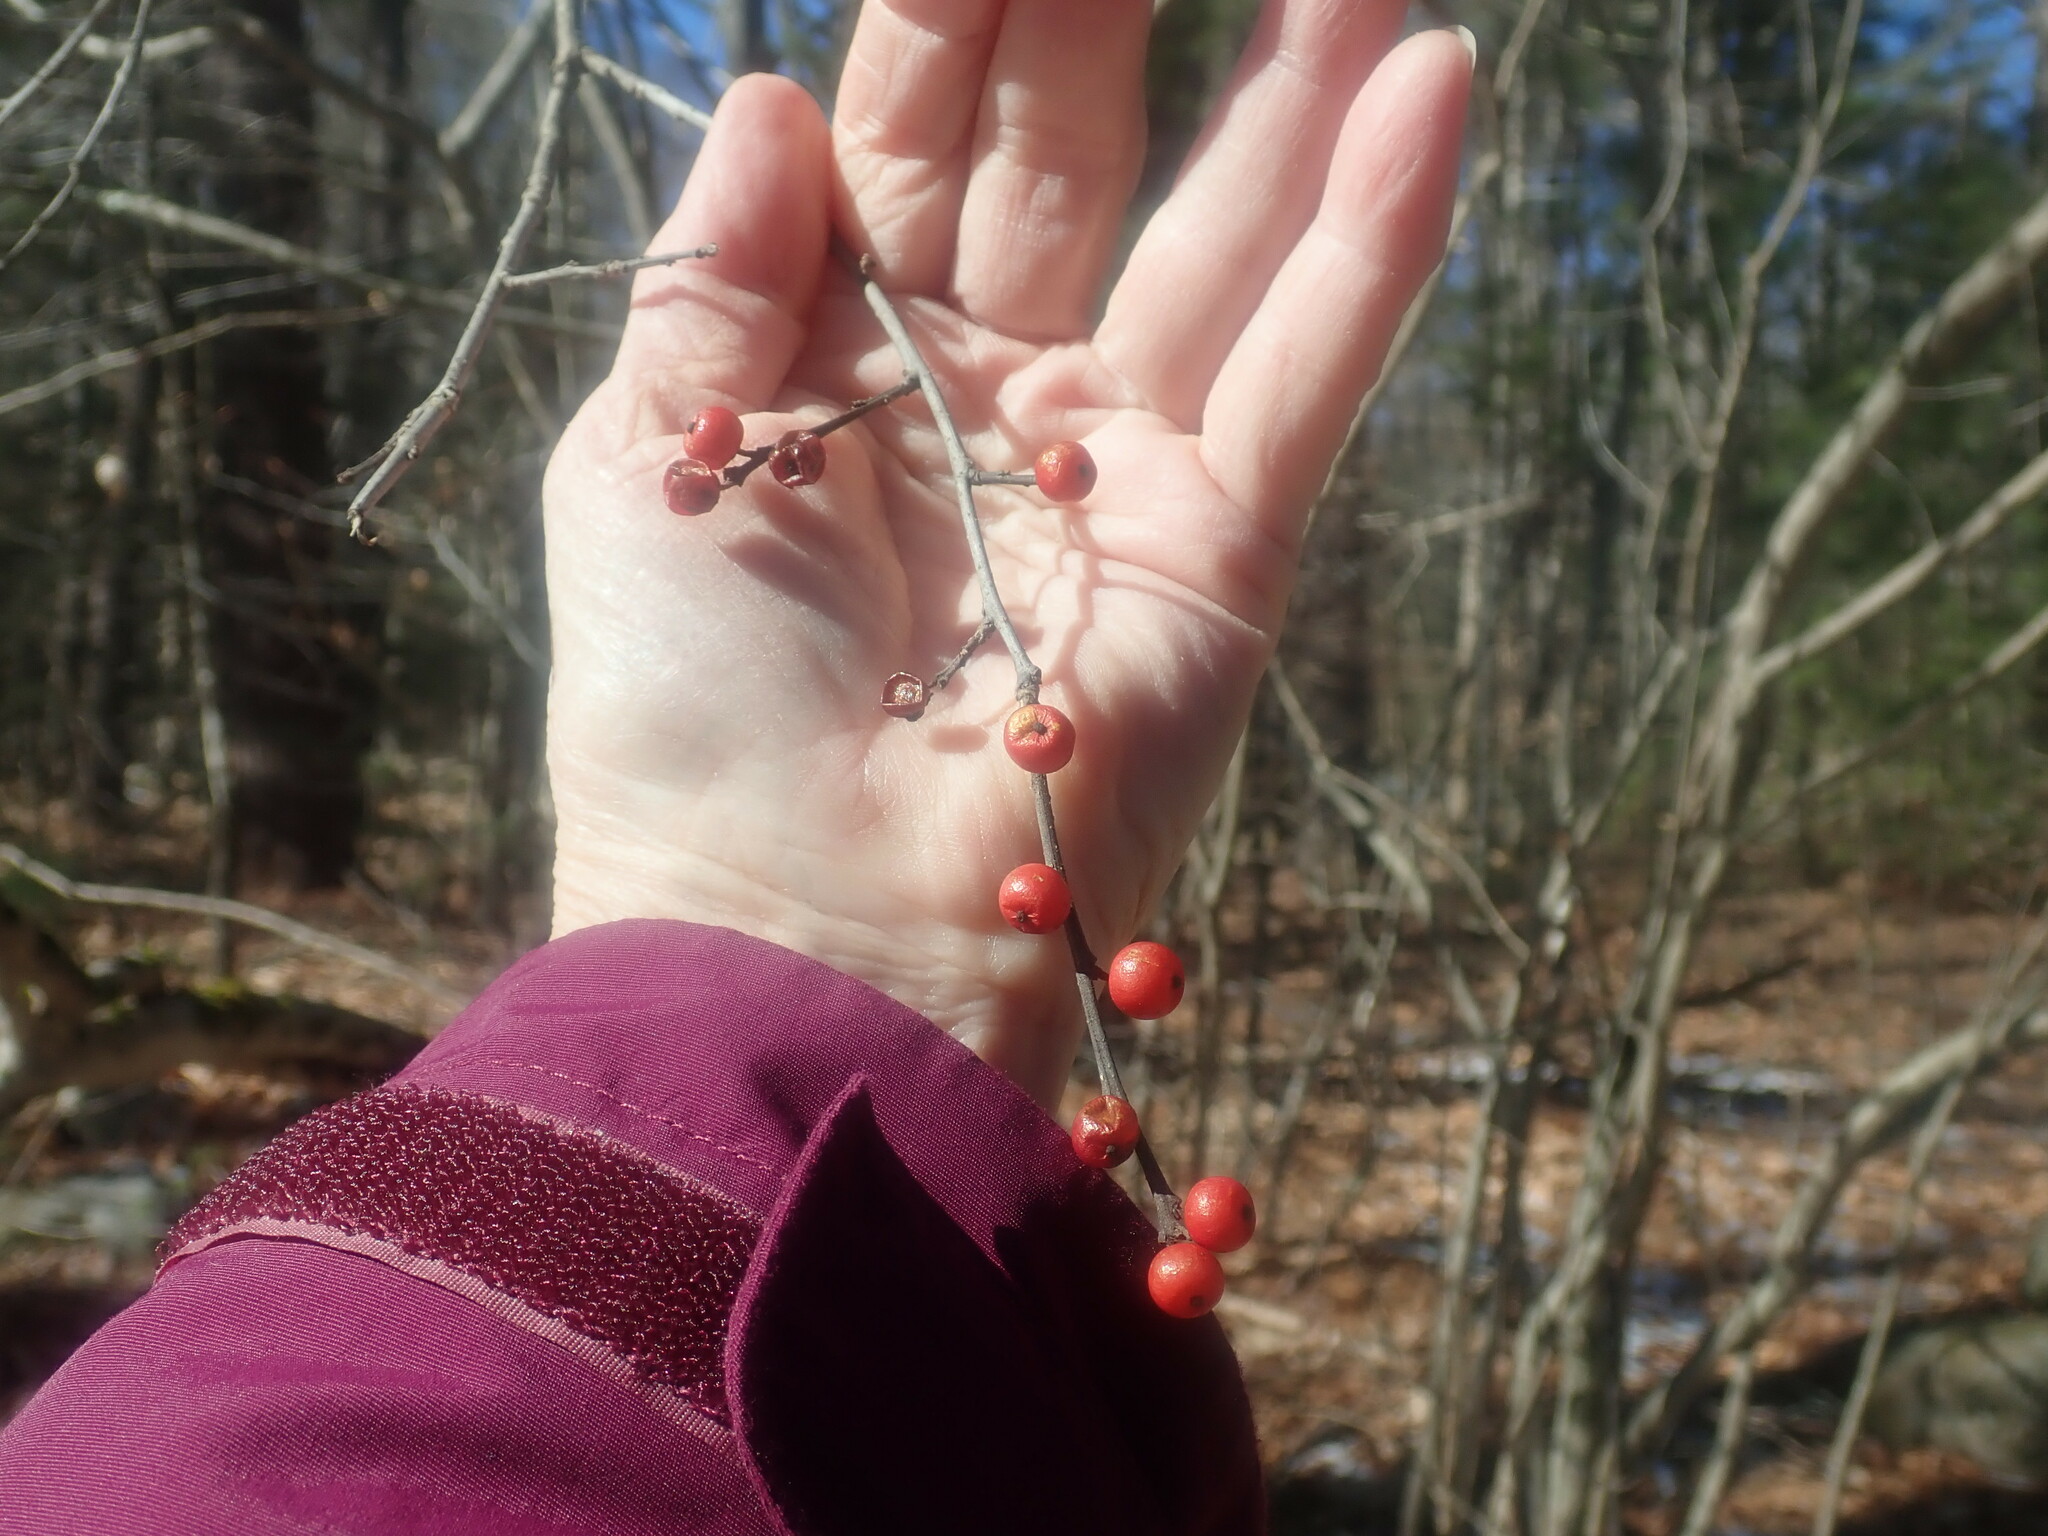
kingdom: Plantae
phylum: Tracheophyta
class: Magnoliopsida
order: Aquifoliales
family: Aquifoliaceae
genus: Ilex
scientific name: Ilex verticillata
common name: Virginia winterberry
